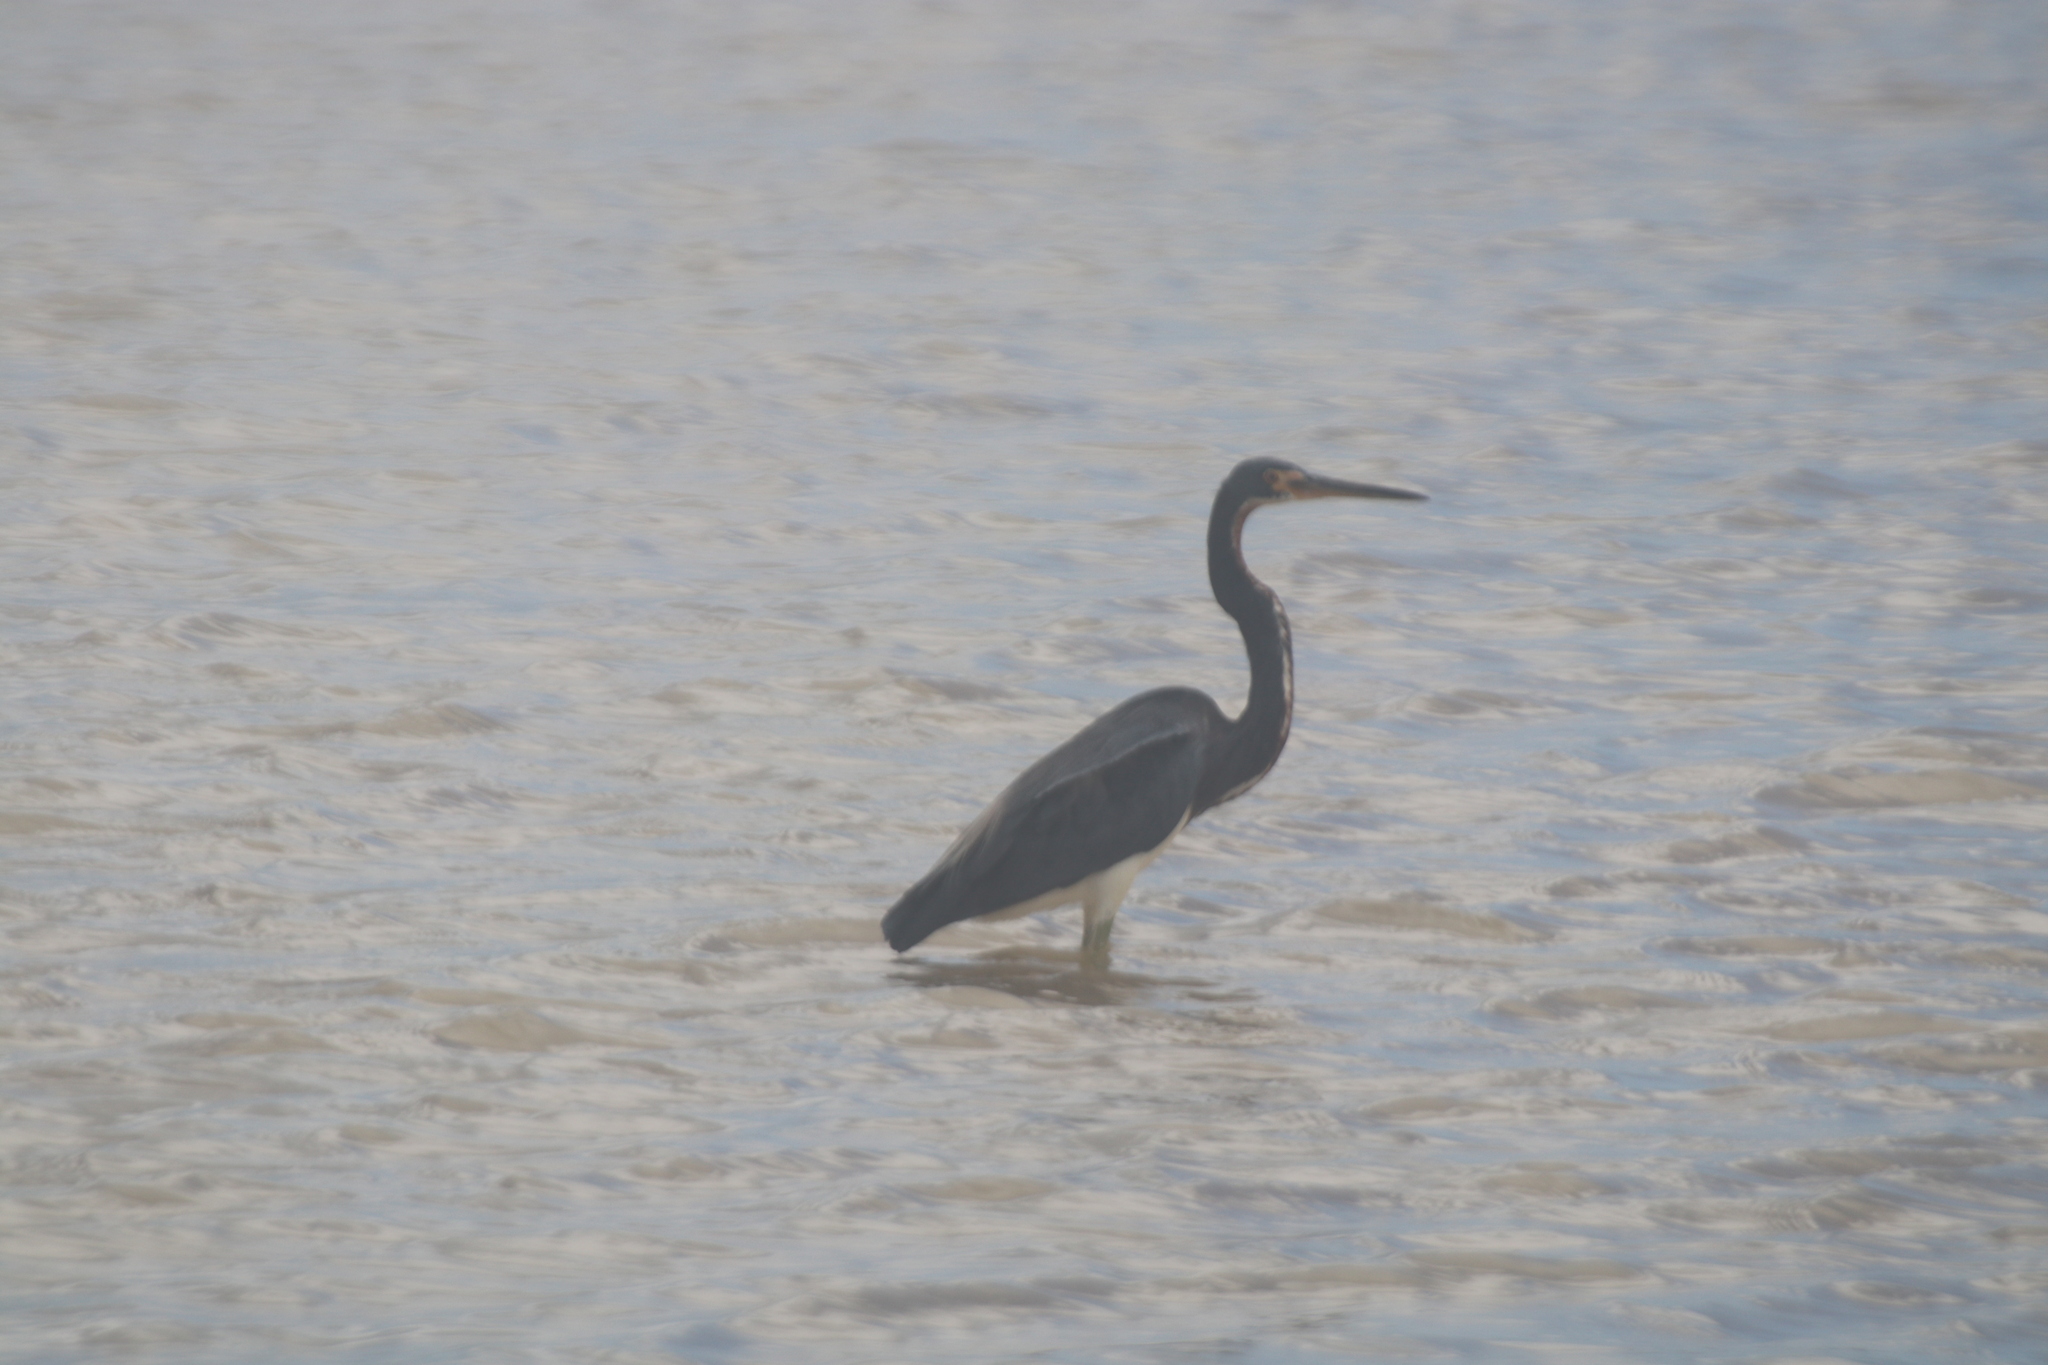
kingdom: Animalia
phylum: Chordata
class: Aves
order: Pelecaniformes
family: Ardeidae
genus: Egretta
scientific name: Egretta tricolor
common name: Tricolored heron
